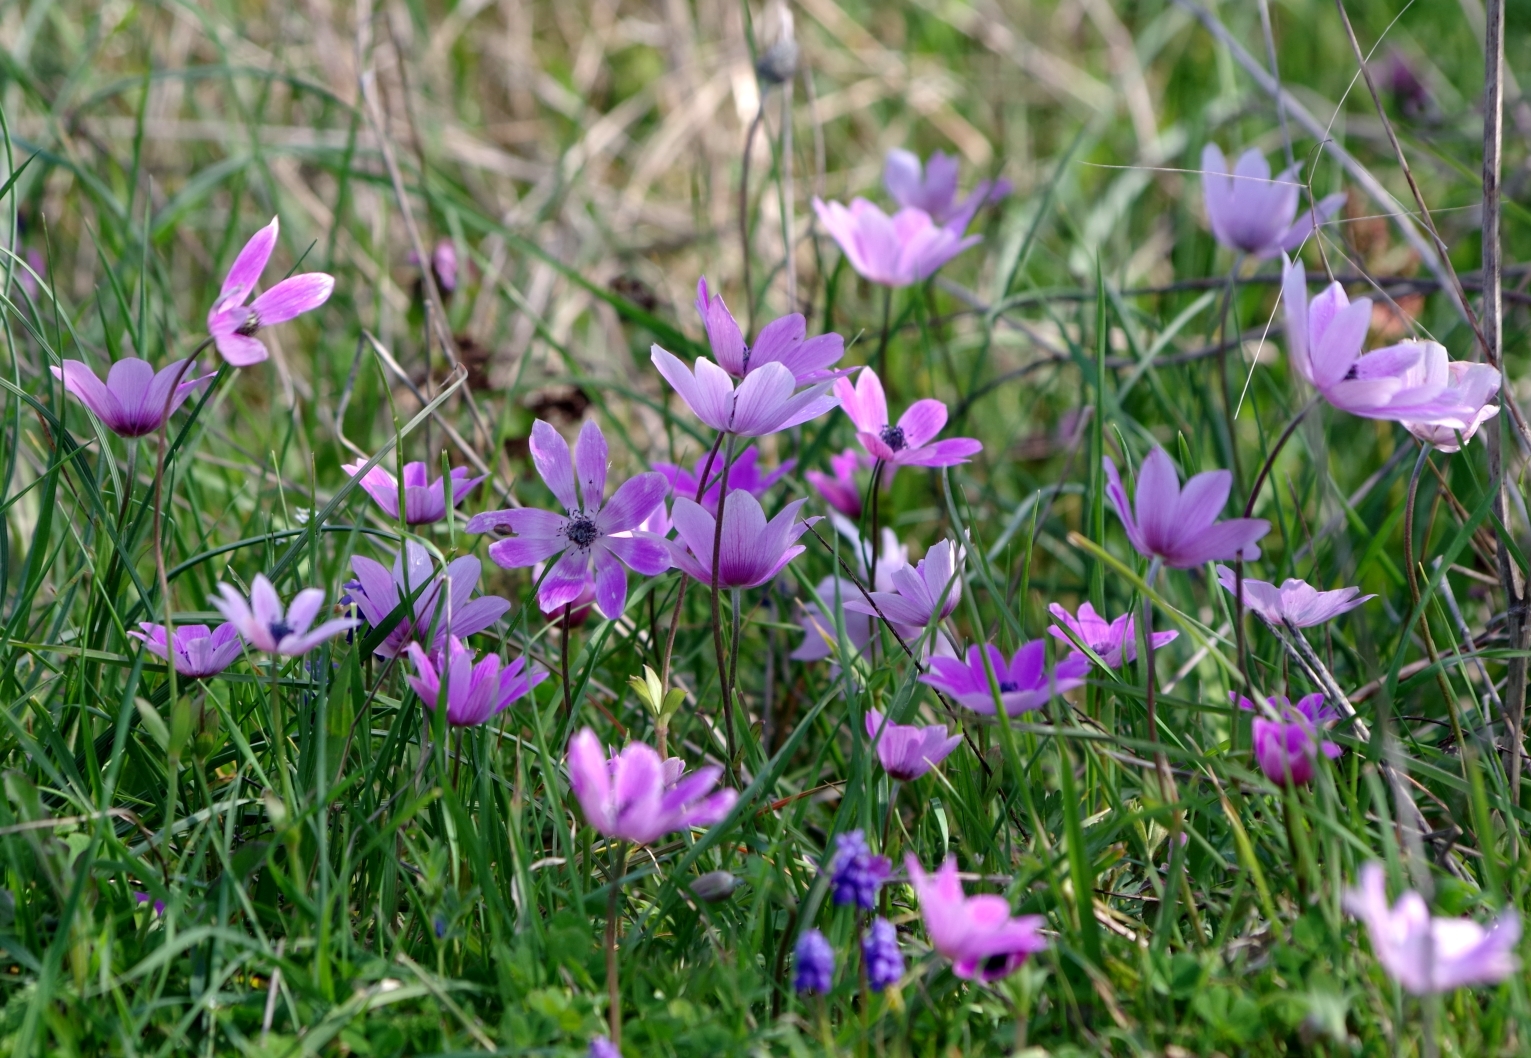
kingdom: Plantae
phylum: Tracheophyta
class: Magnoliopsida
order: Ranunculales
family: Ranunculaceae
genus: Anemone
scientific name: Anemone pavonina
